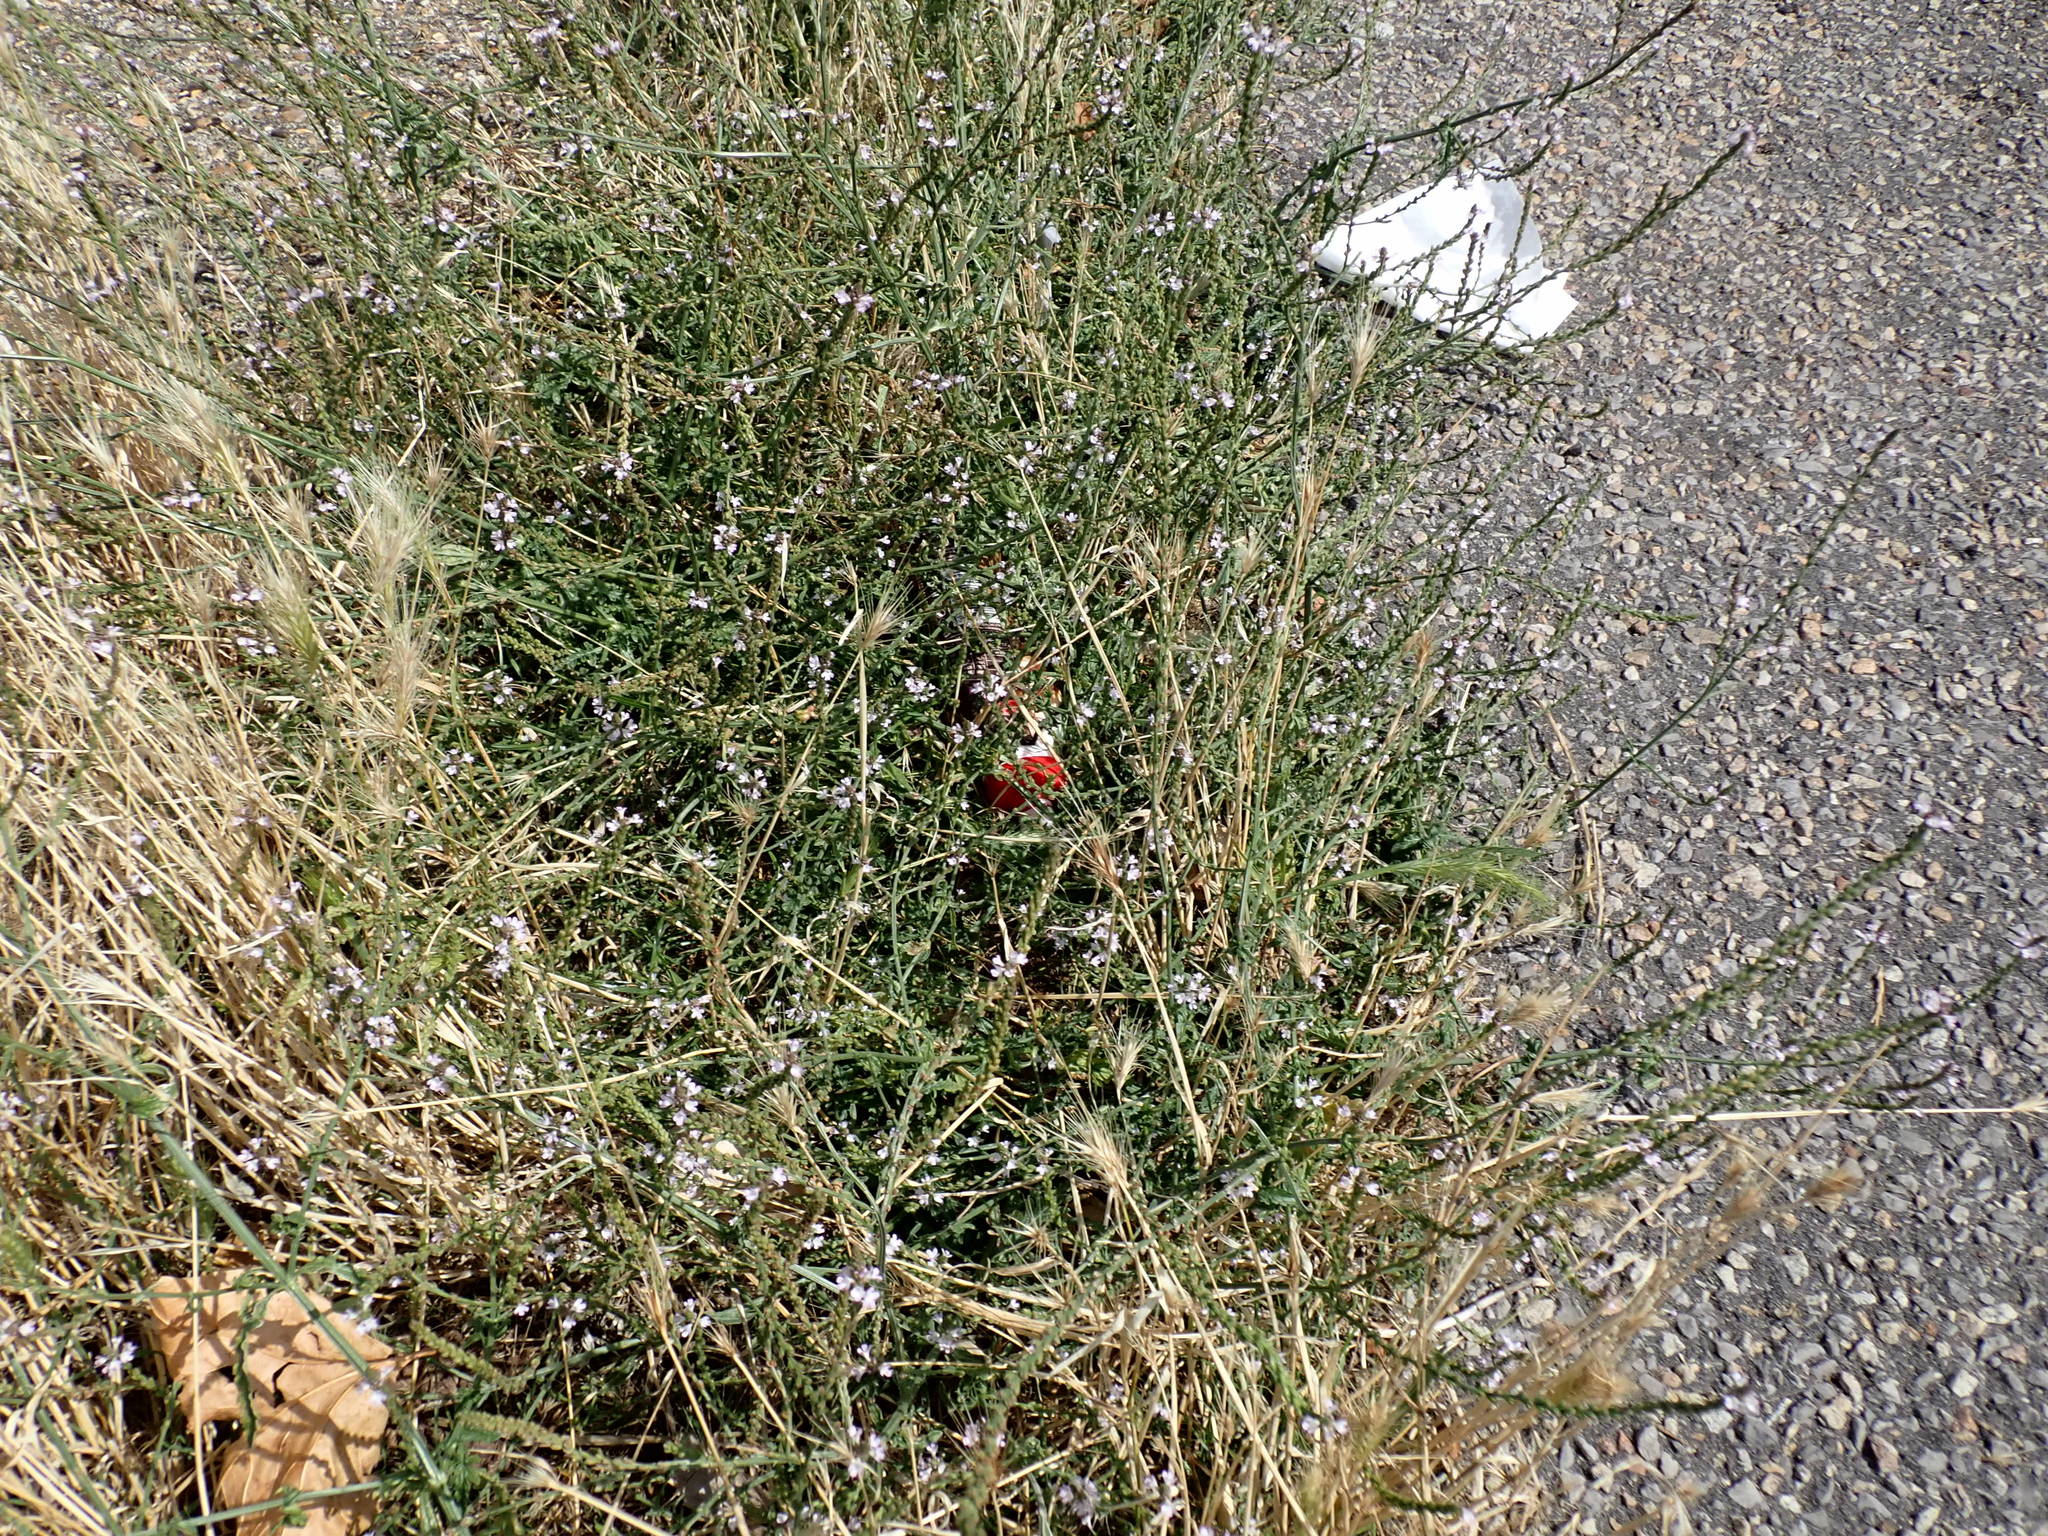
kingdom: Plantae
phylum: Tracheophyta
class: Magnoliopsida
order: Lamiales
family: Verbenaceae
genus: Verbena
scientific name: Verbena officinalis
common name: Vervain
